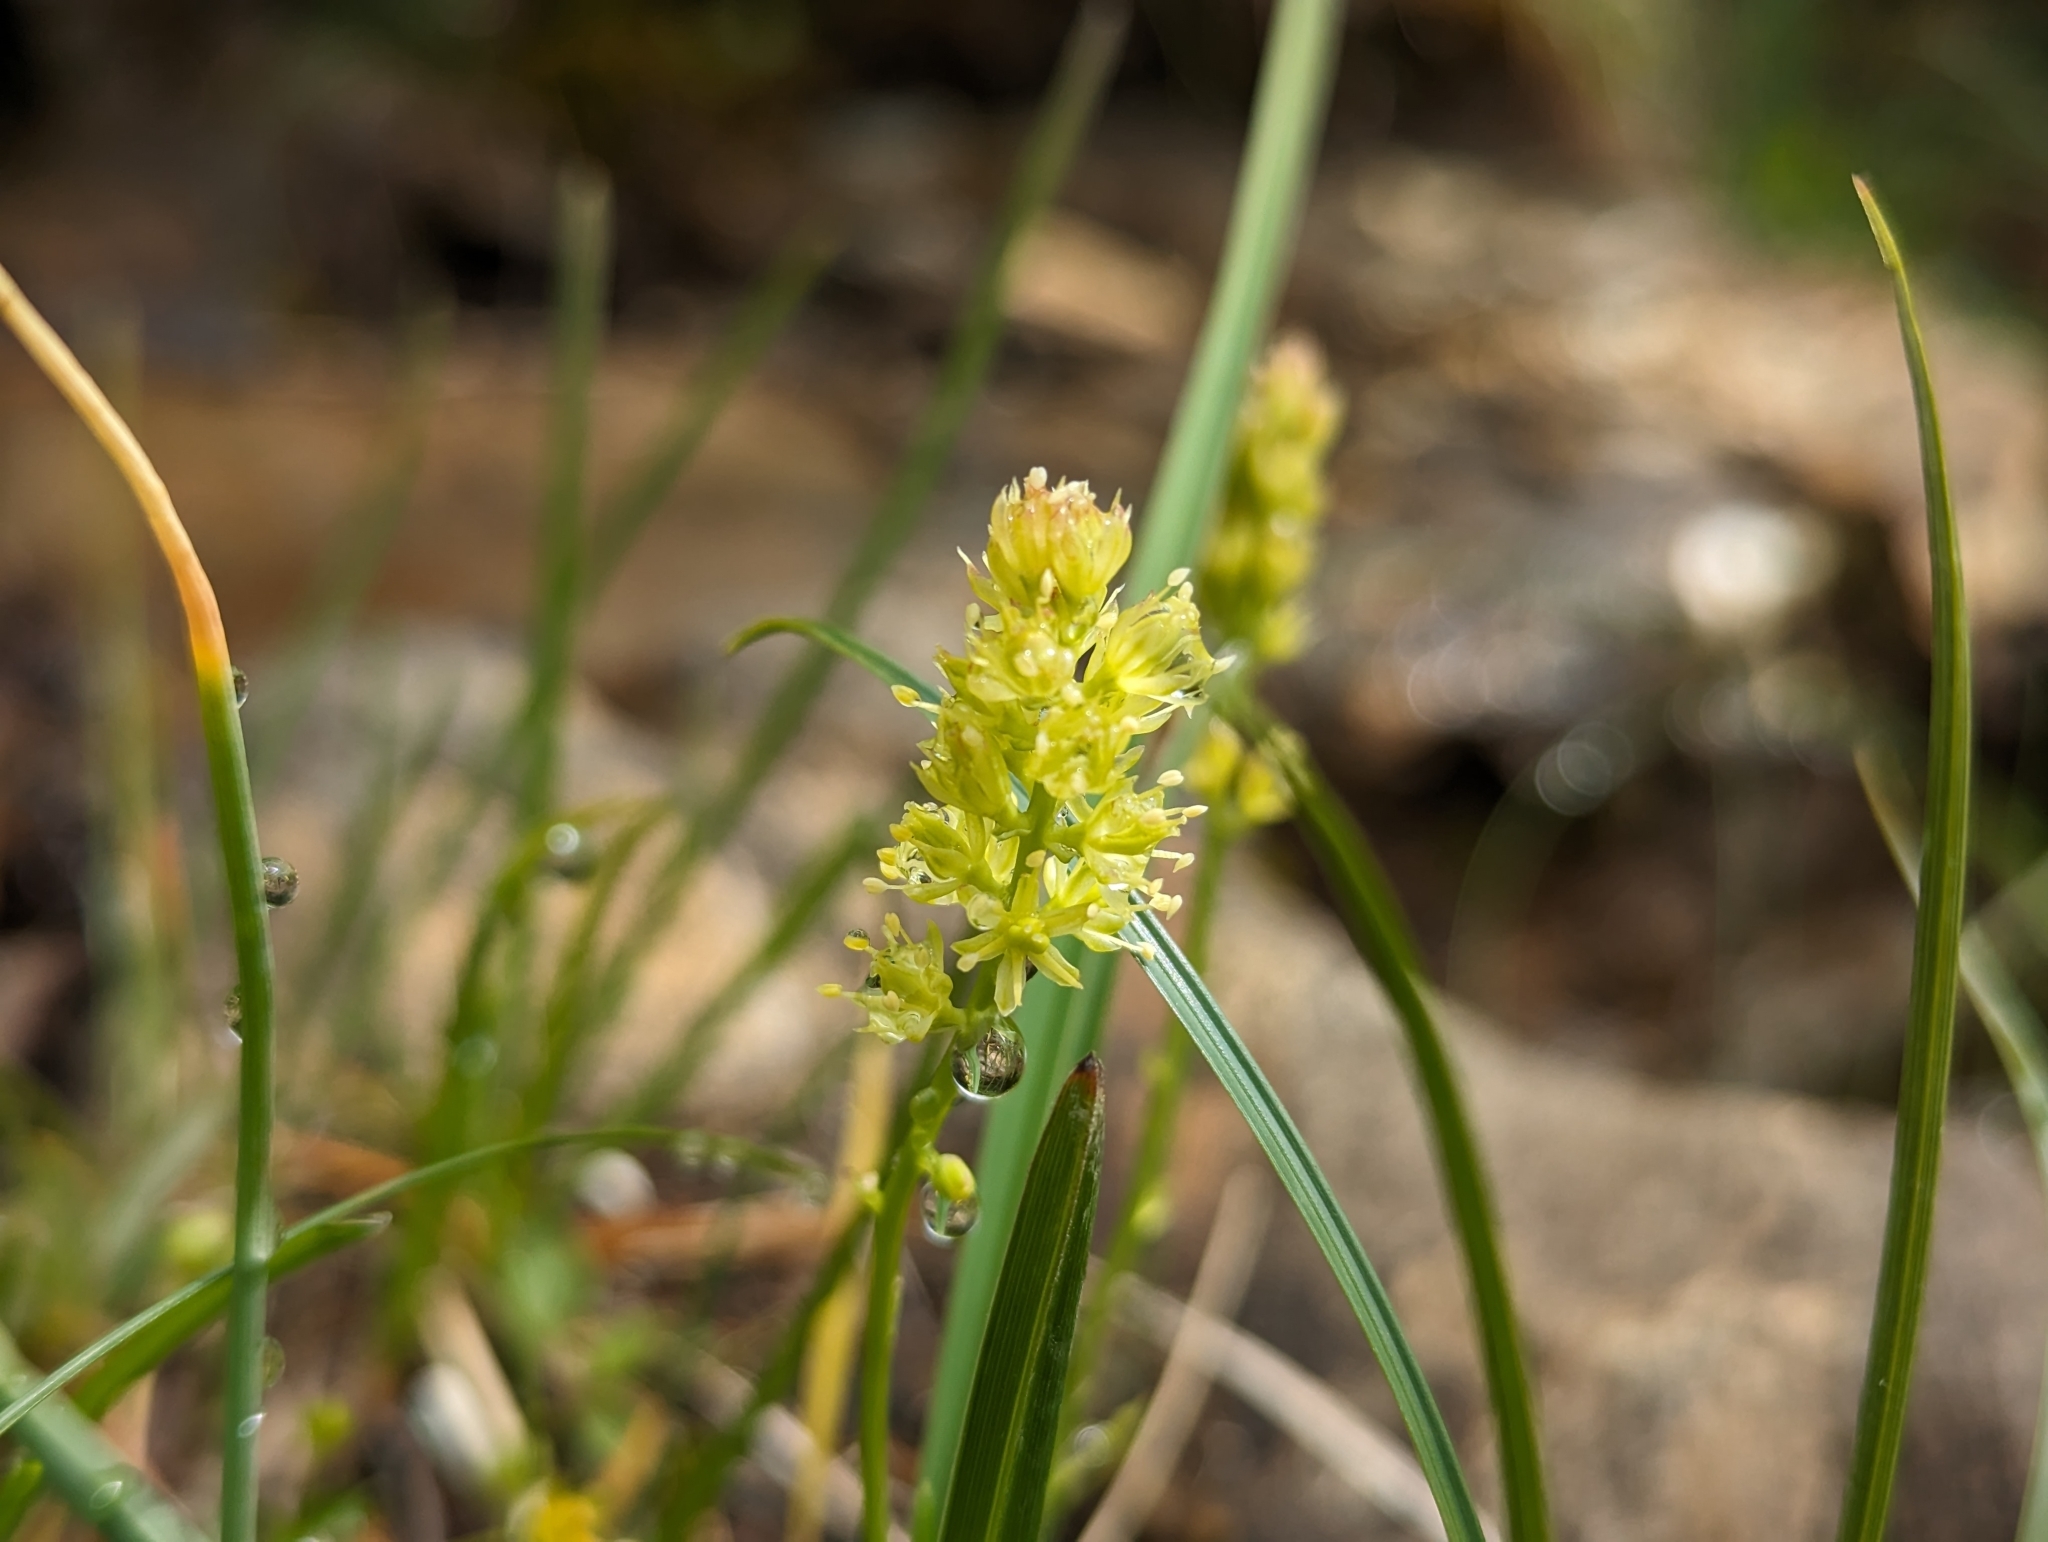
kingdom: Plantae
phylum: Tracheophyta
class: Liliopsida
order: Alismatales
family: Tofieldiaceae
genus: Tofieldia
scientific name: Tofieldia calyculata
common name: German-asphodel
